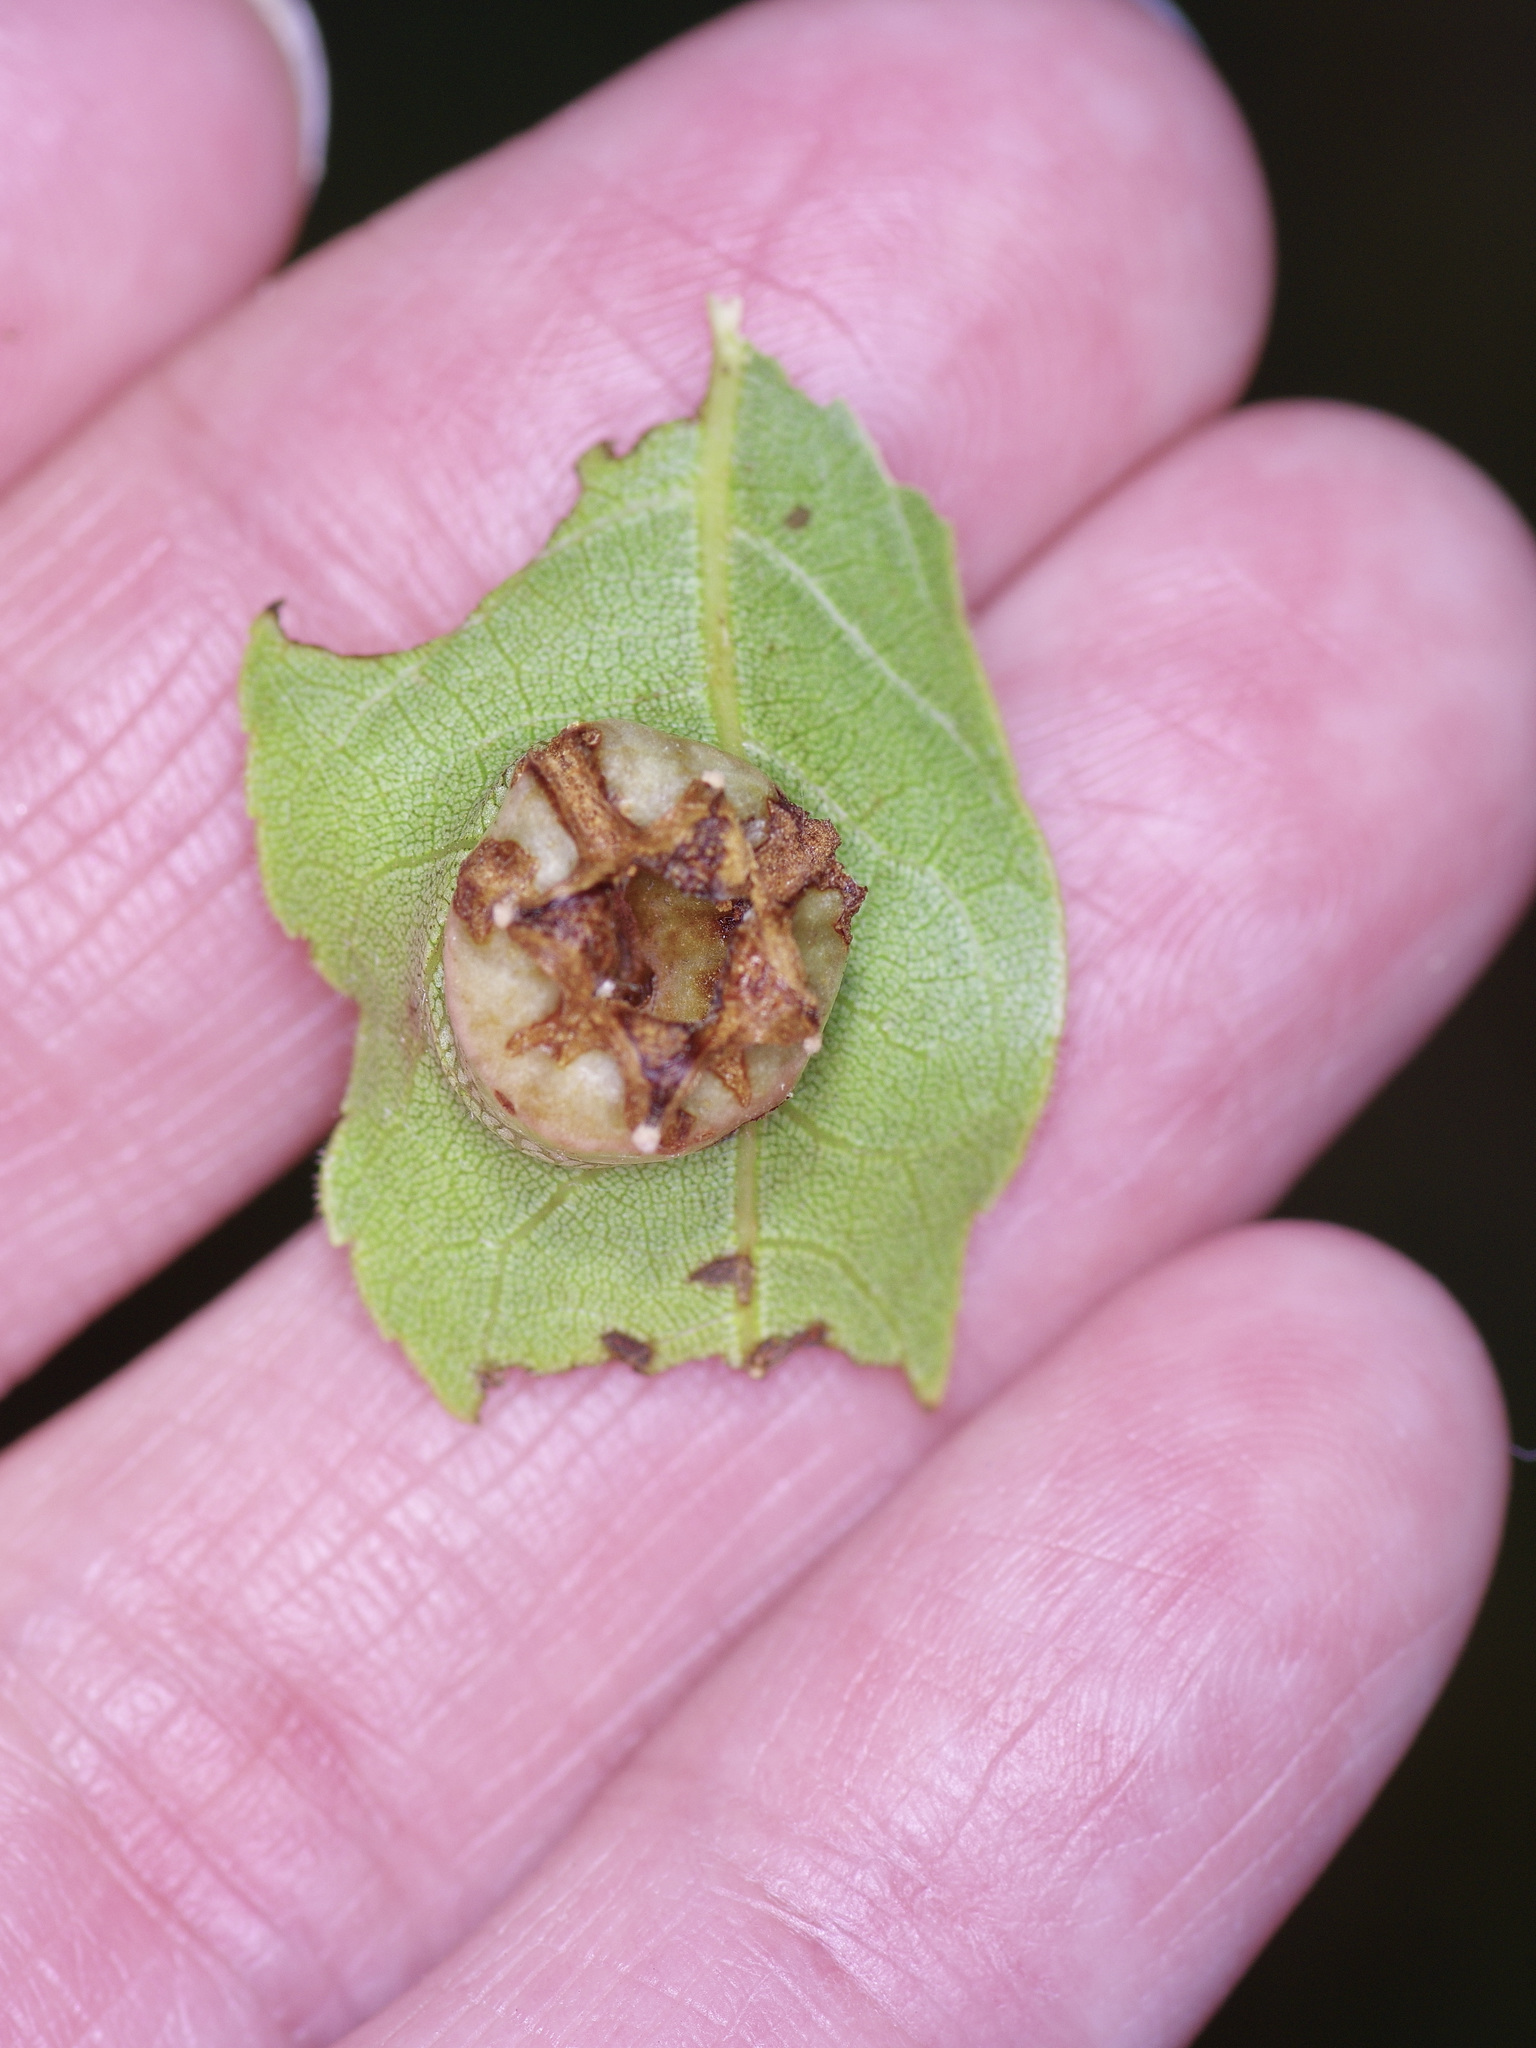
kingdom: Animalia
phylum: Arthropoda
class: Insecta
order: Hemiptera
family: Phylloxeridae
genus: Phylloxera
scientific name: Phylloxera
